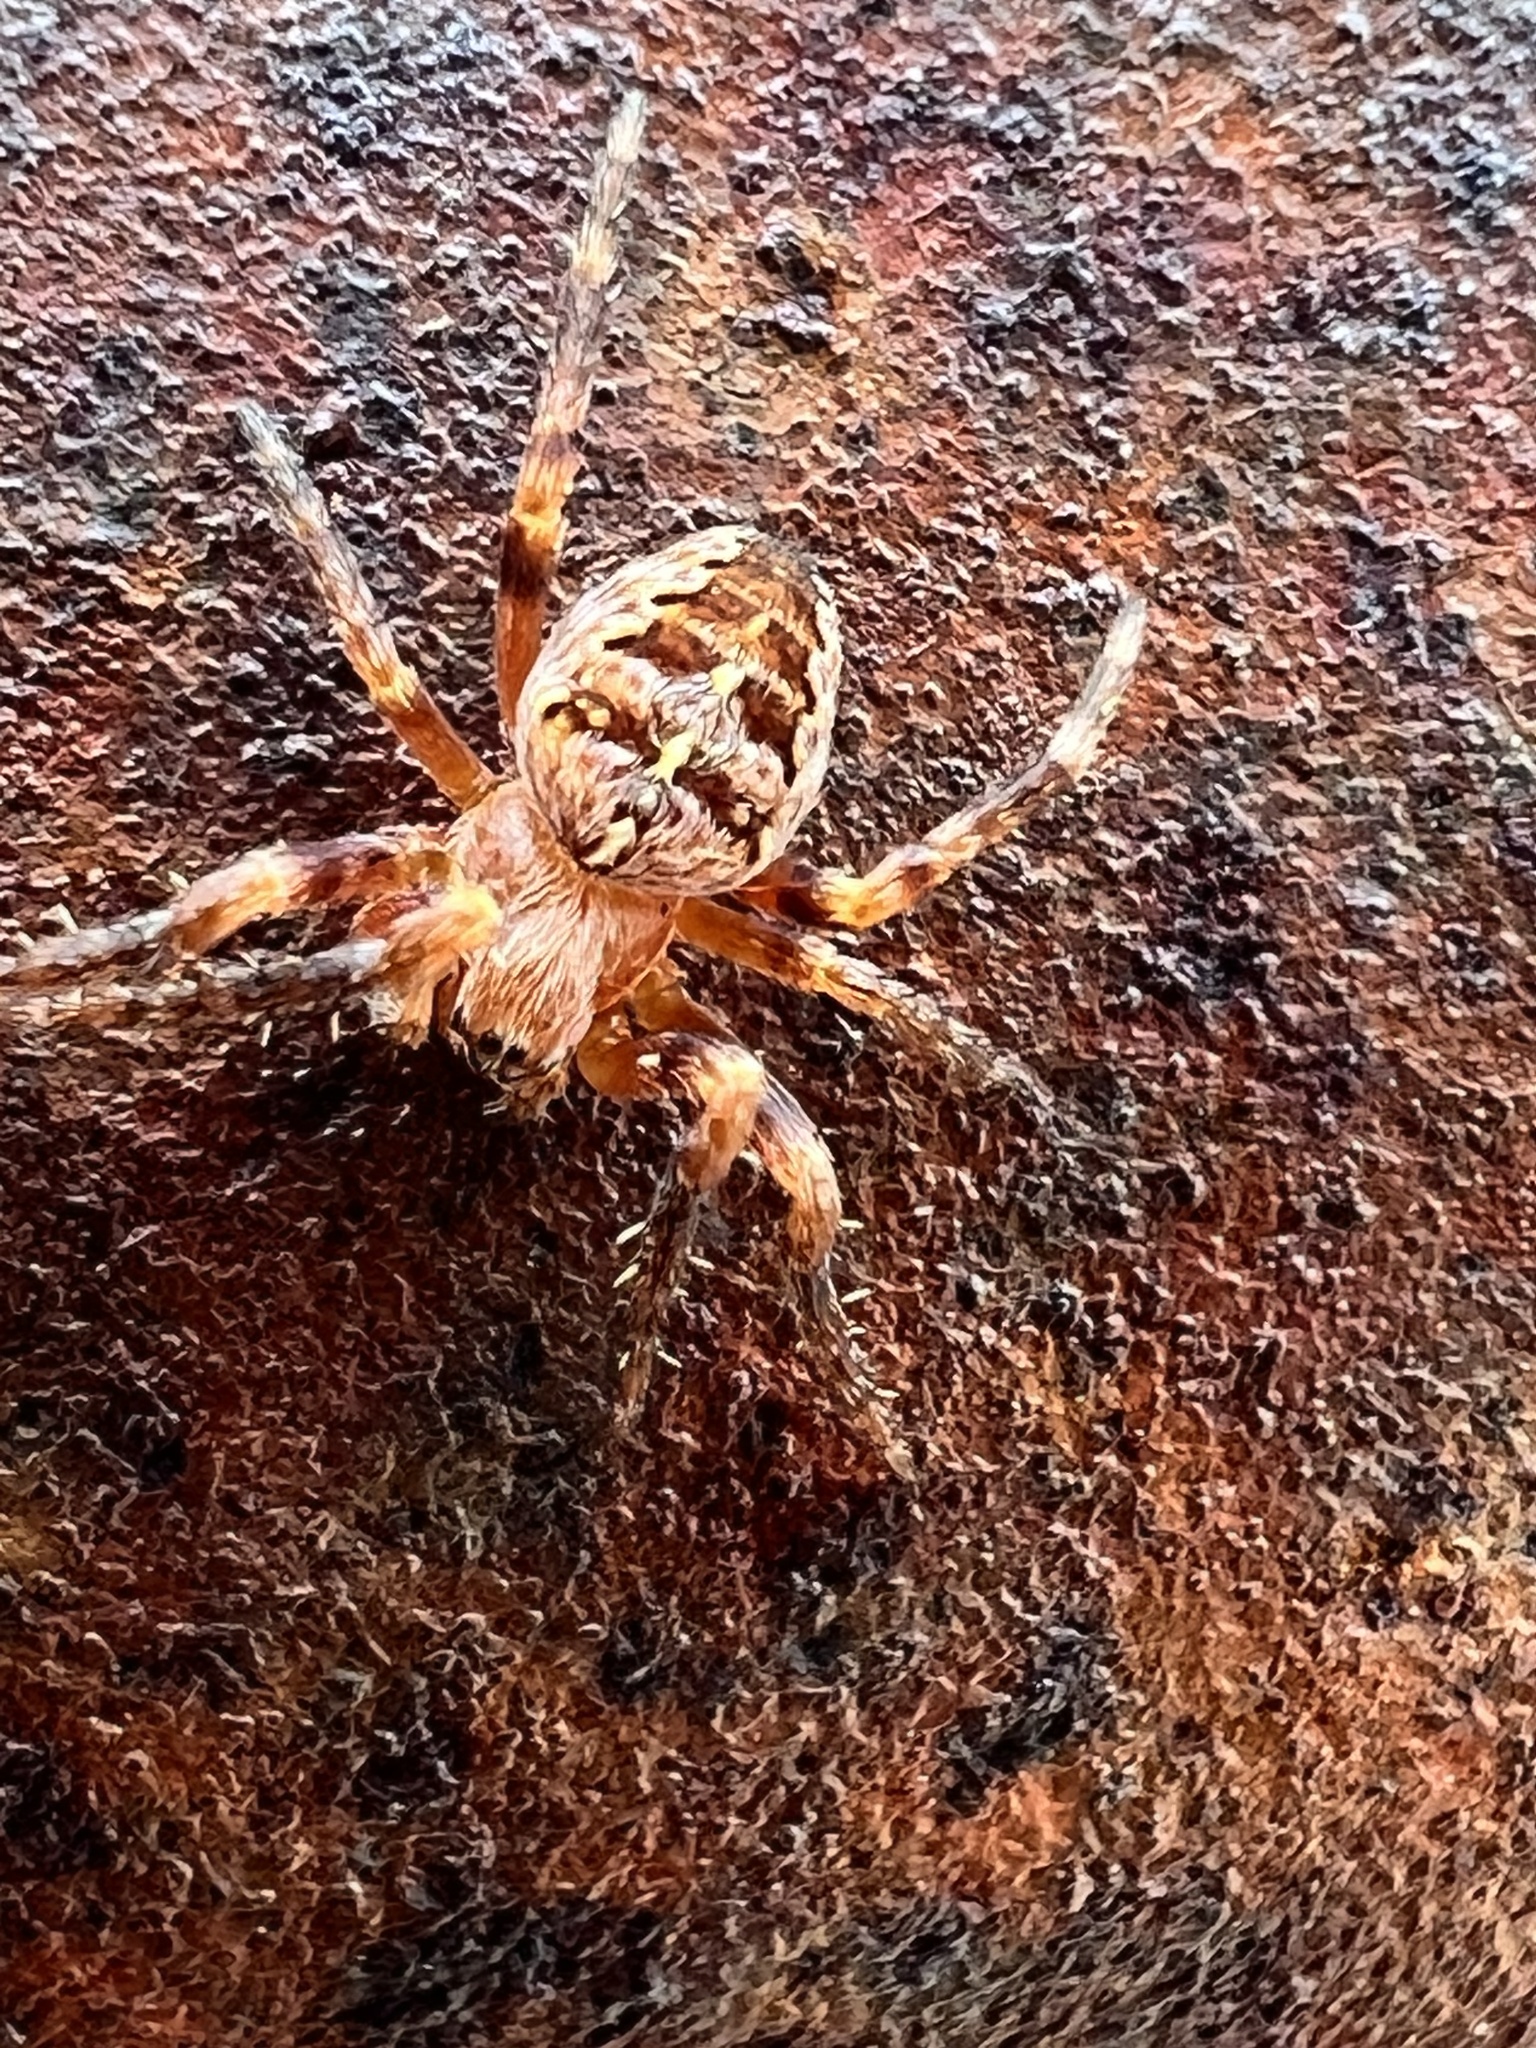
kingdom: Animalia
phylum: Arthropoda
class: Arachnida
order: Araneae
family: Araneidae
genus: Araneus
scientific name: Araneus diadematus
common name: Cross orbweaver
